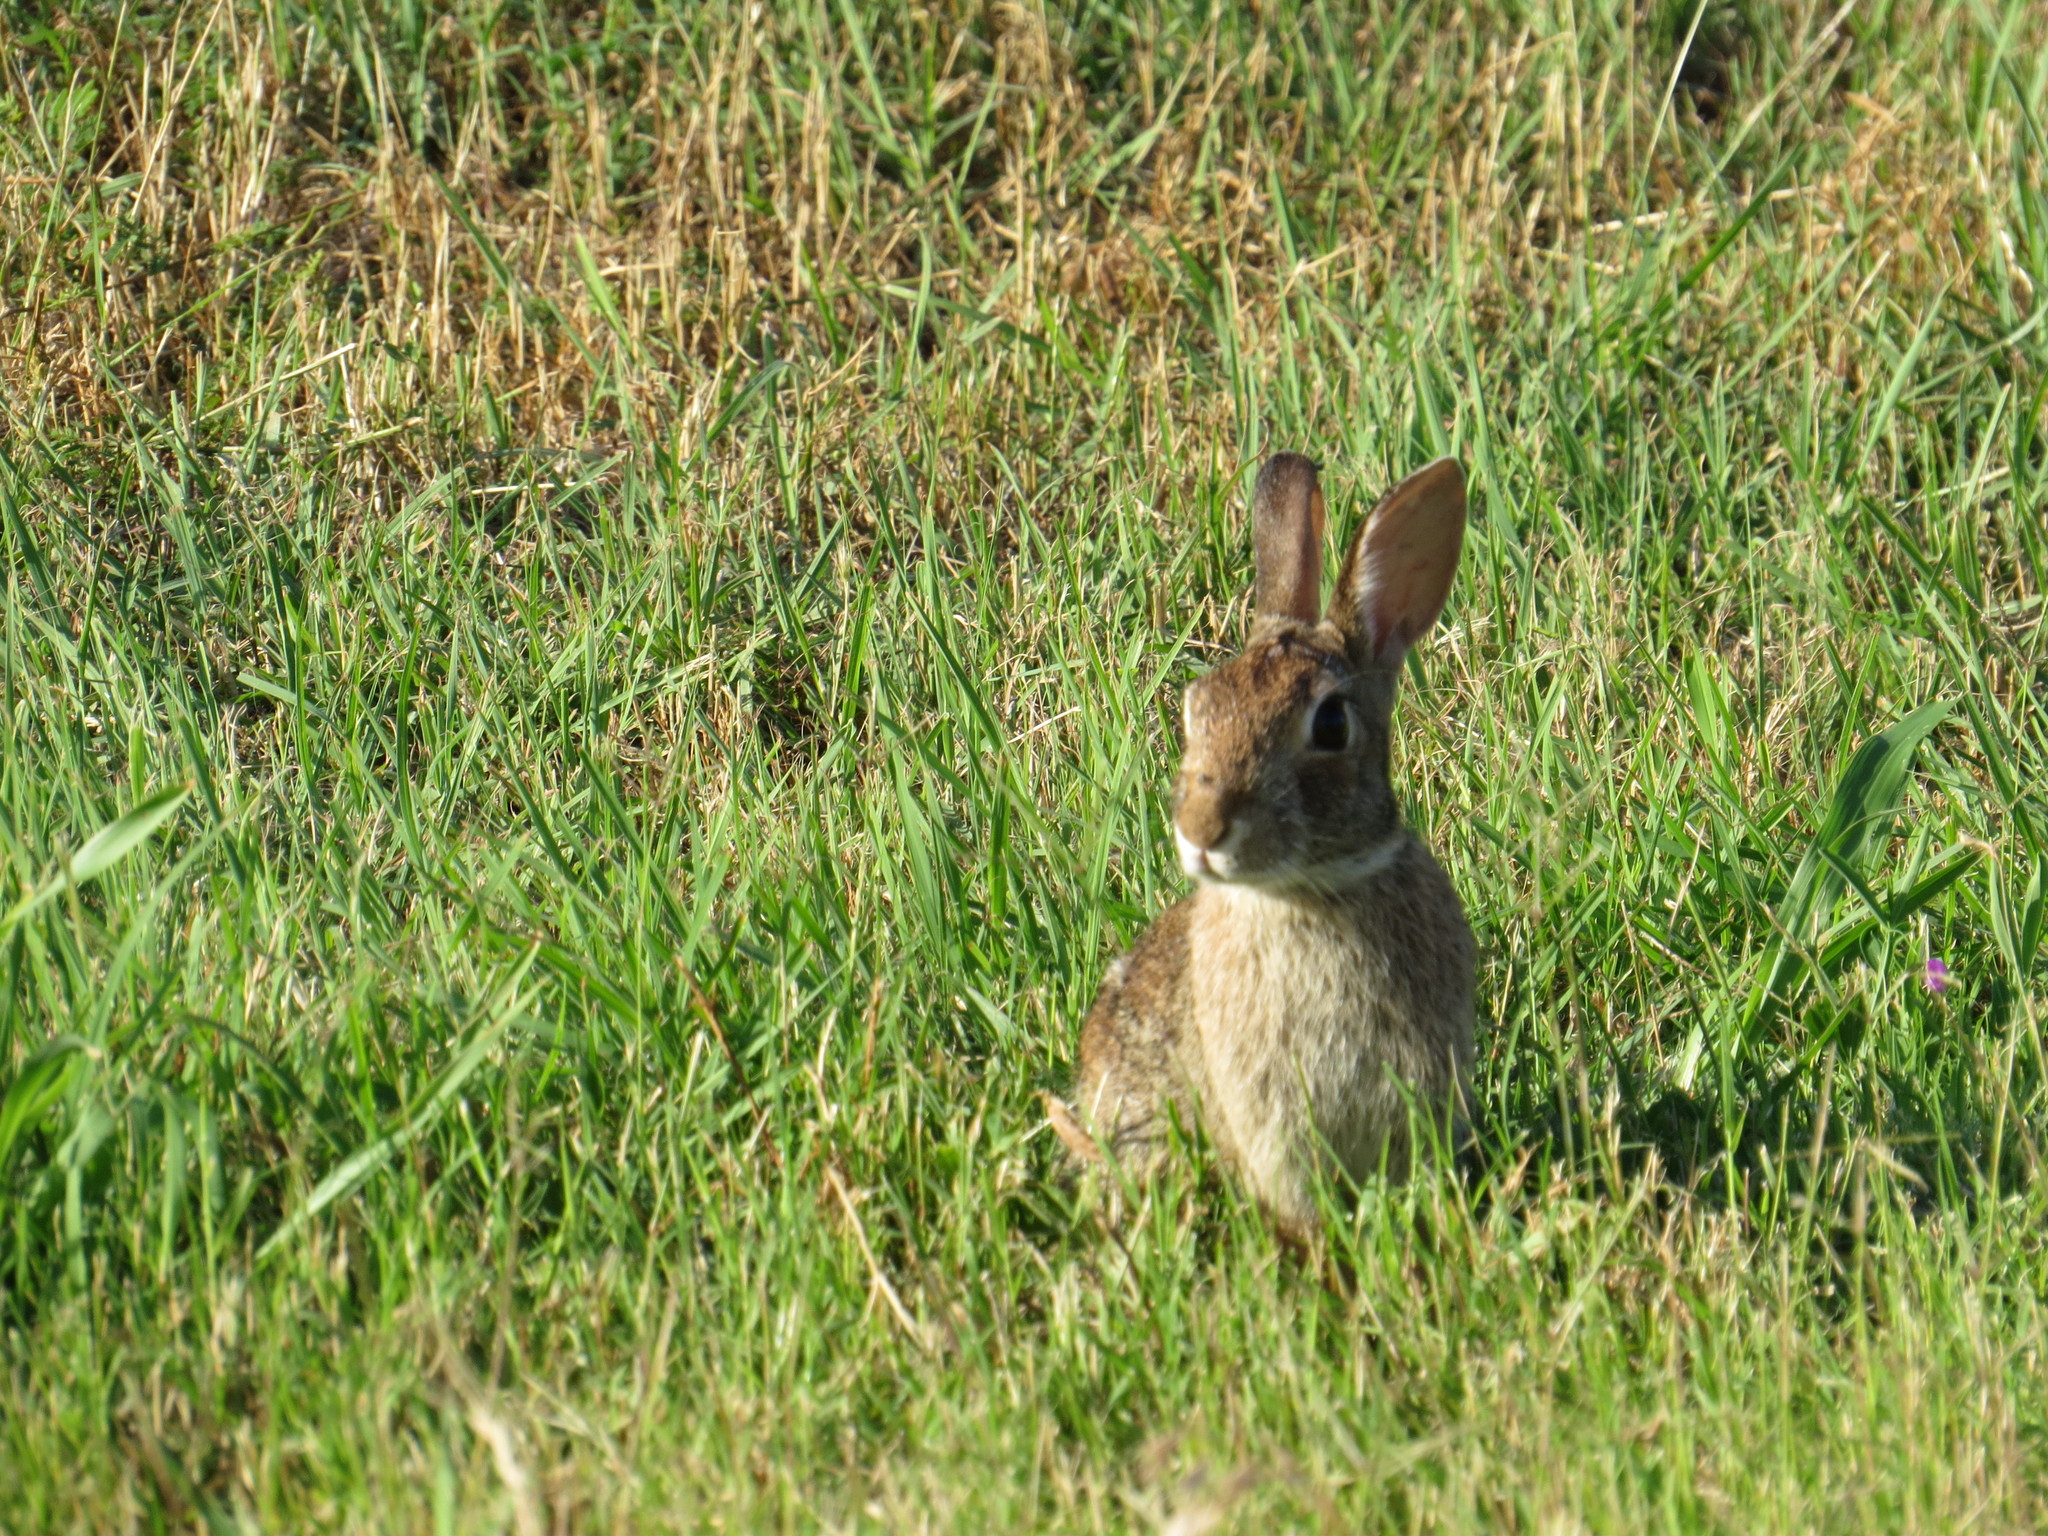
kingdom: Animalia
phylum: Chordata
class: Mammalia
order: Lagomorpha
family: Leporidae
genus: Sylvilagus
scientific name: Sylvilagus floridanus
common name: Eastern cottontail
